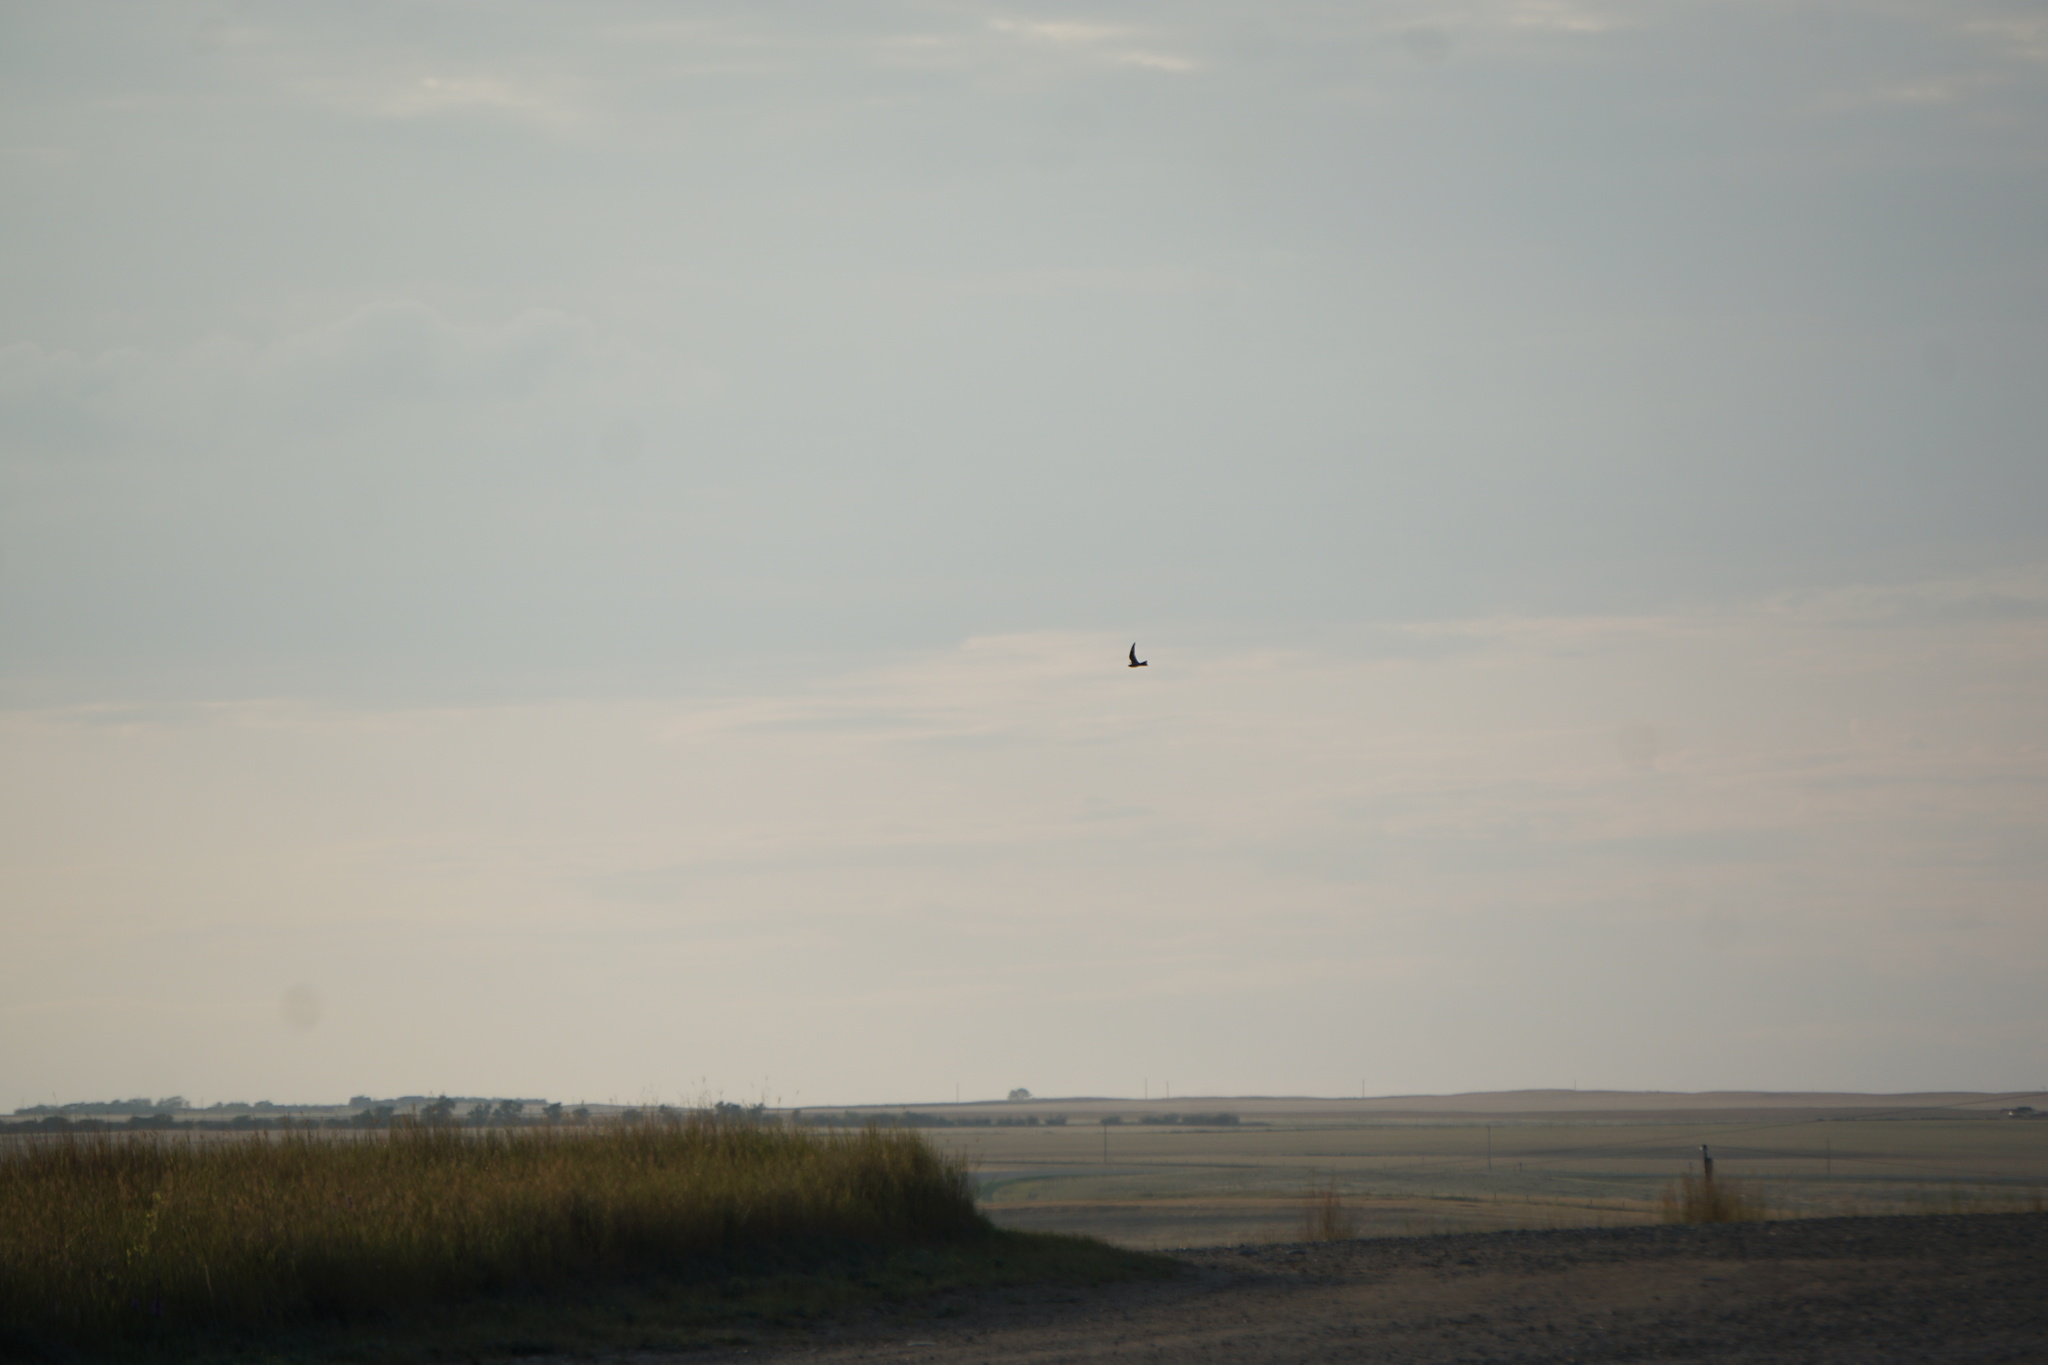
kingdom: Animalia
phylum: Chordata
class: Aves
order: Caprimulgiformes
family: Caprimulgidae
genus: Chordeiles
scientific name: Chordeiles minor
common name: Common nighthawk
